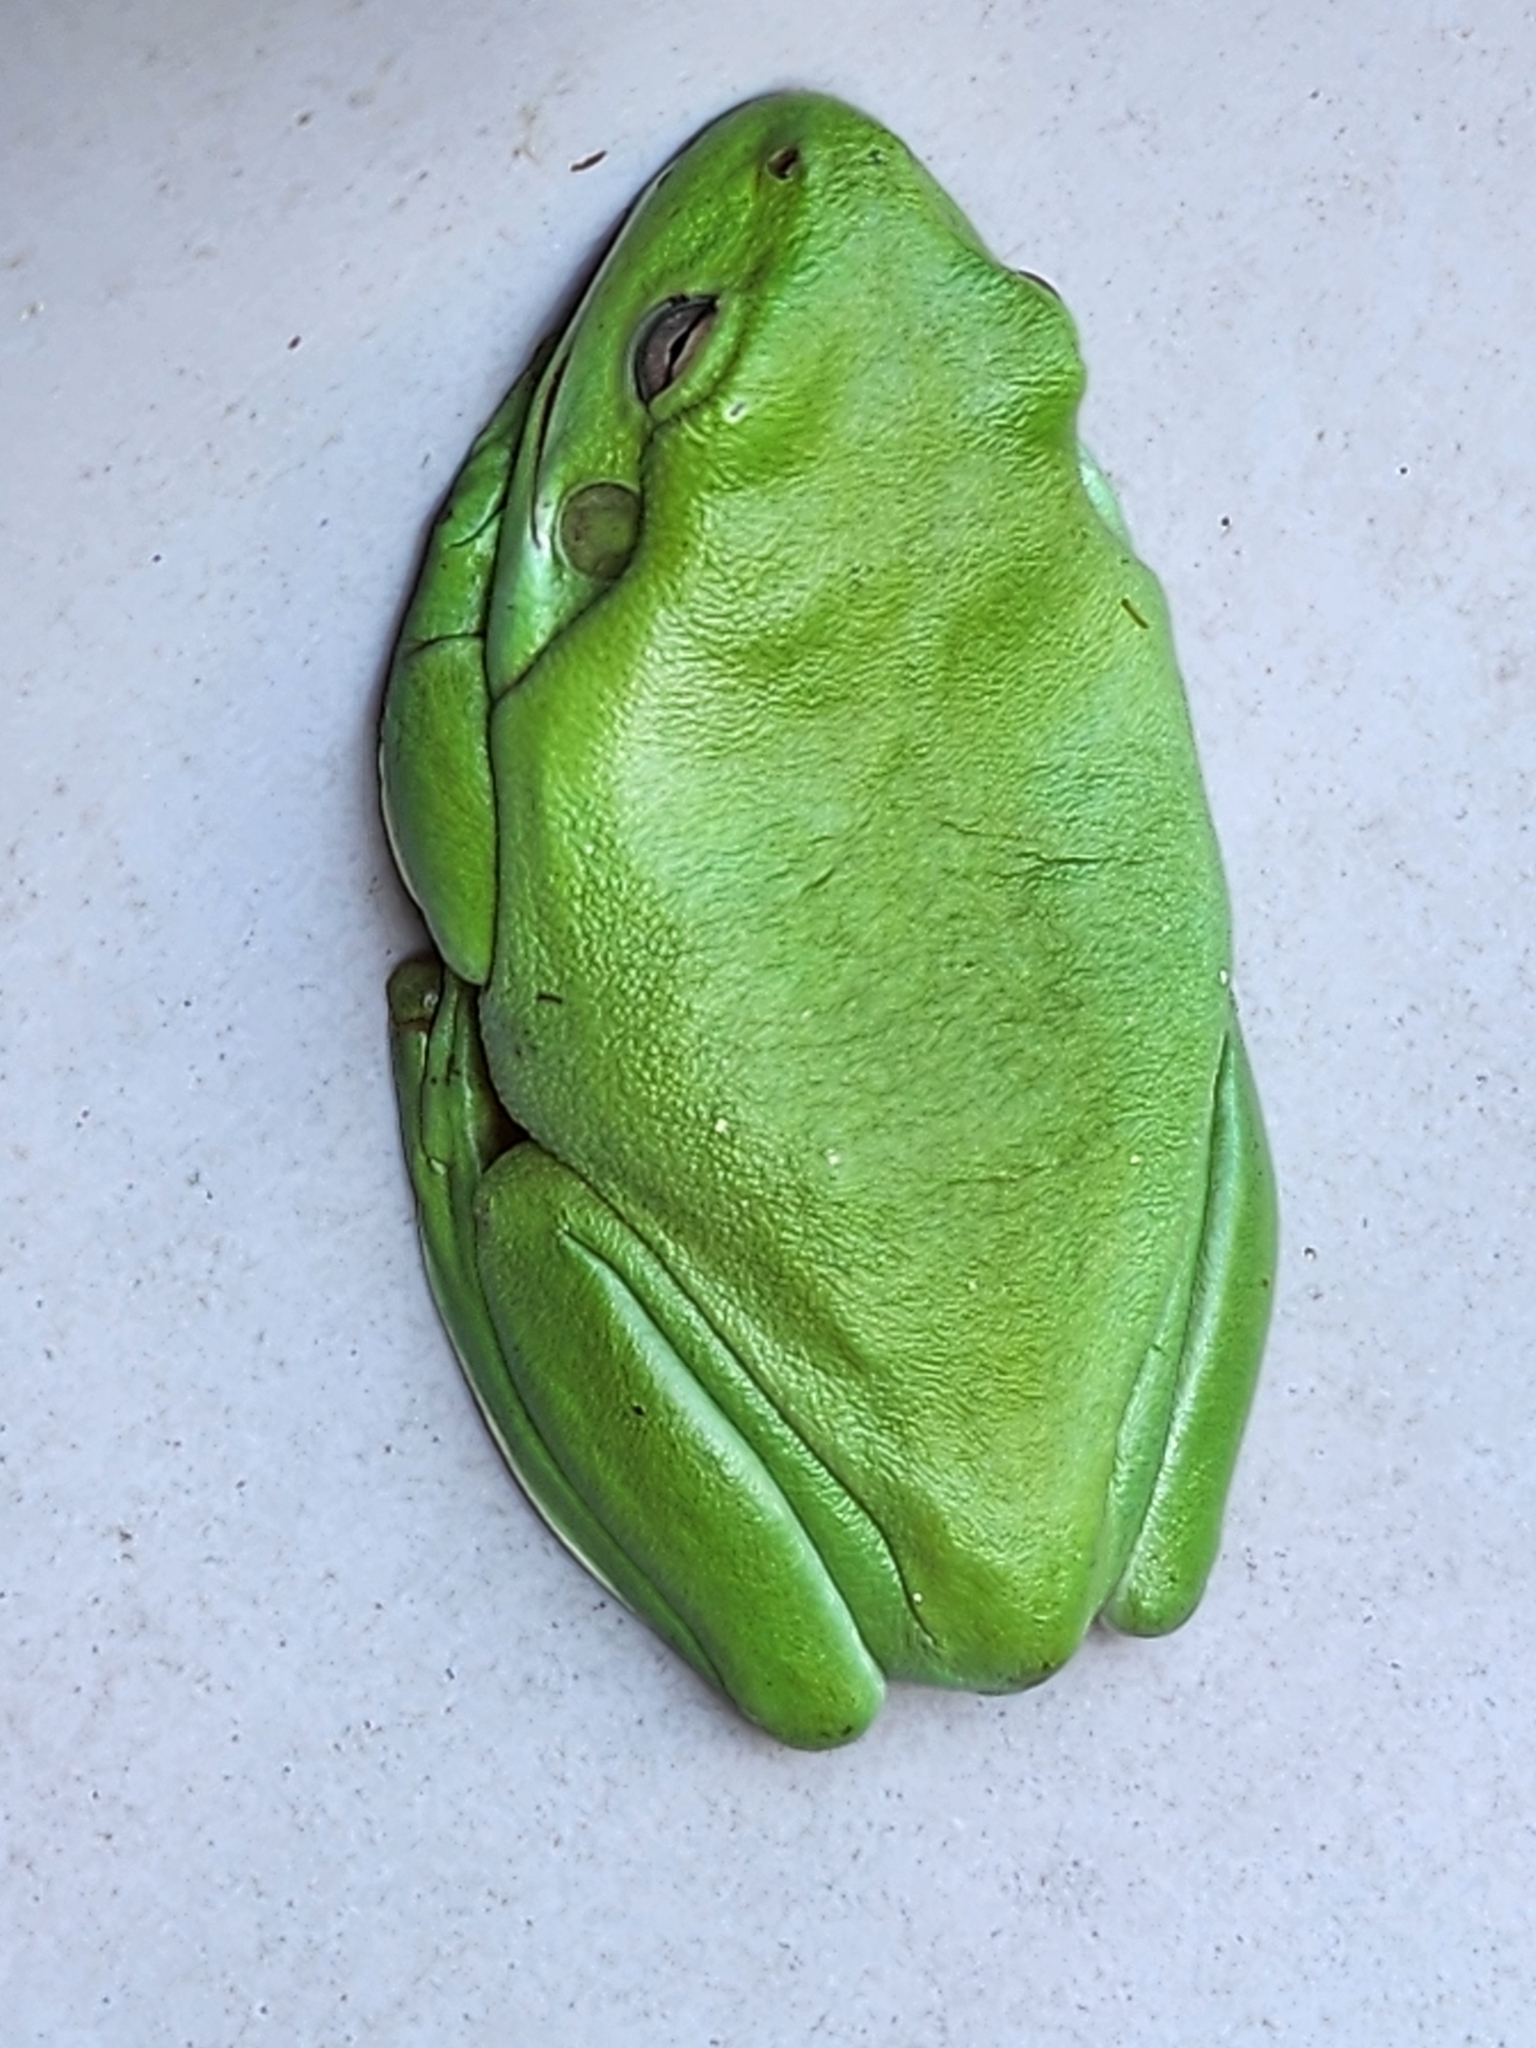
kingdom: Animalia
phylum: Chordata
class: Amphibia
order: Anura
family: Pelodryadidae
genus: Ranoidea
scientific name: Ranoidea caerulea
